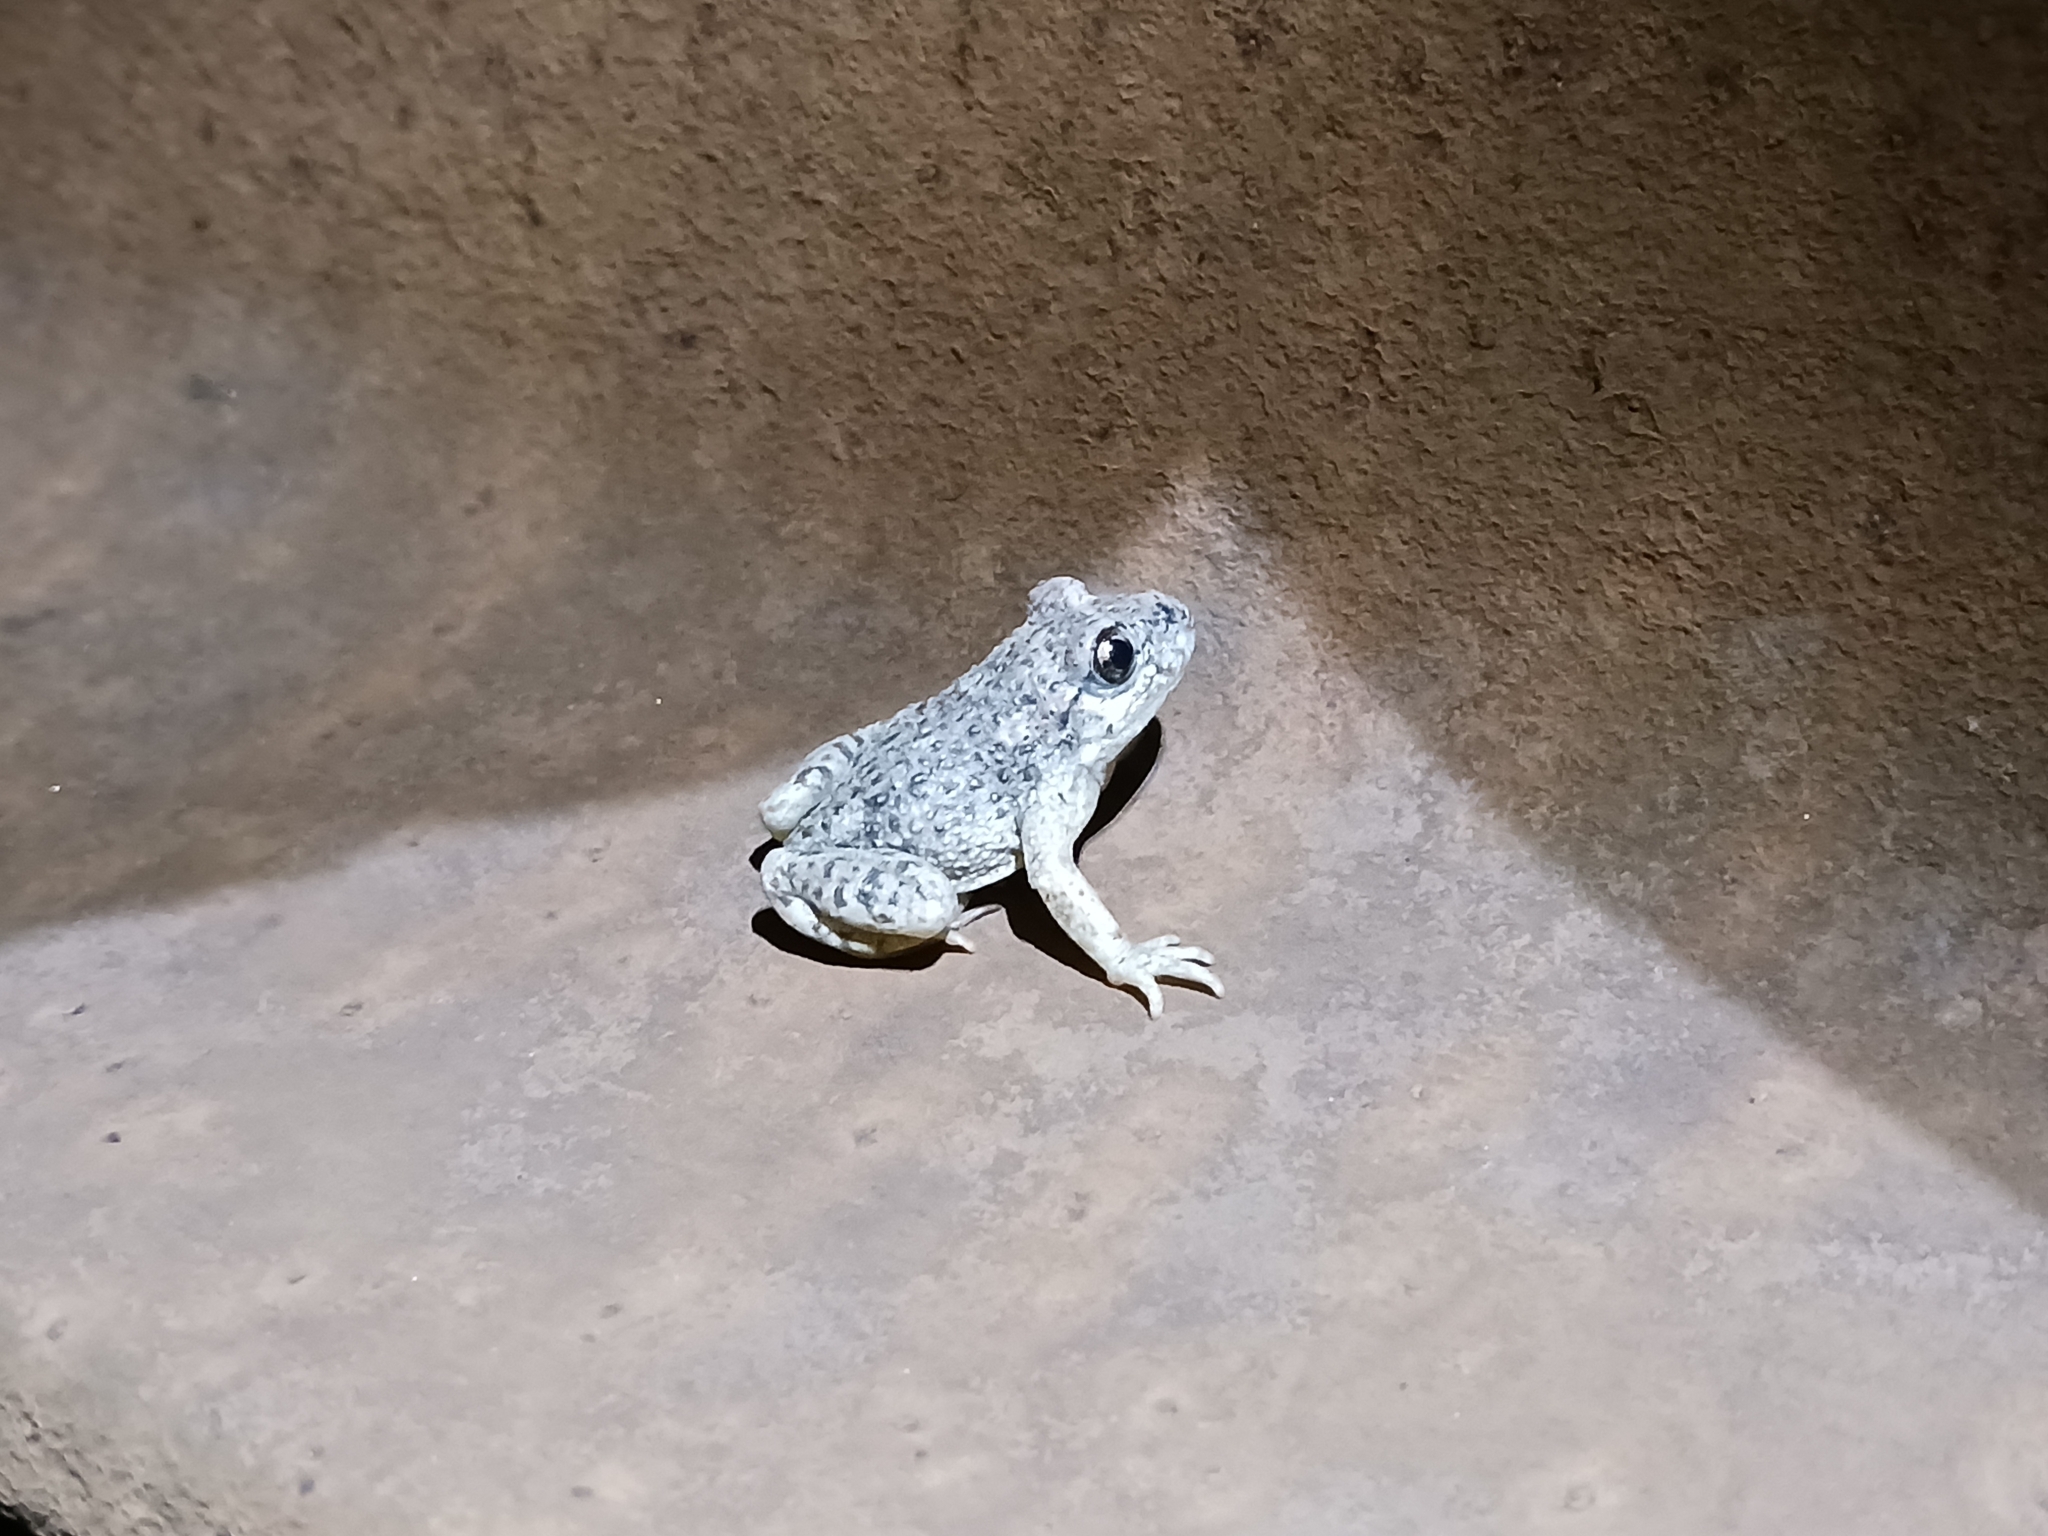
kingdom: Animalia
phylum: Chordata
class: Amphibia
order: Anura
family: Alytidae
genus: Alytes
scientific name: Alytes obstetricans
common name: Midwife toad
